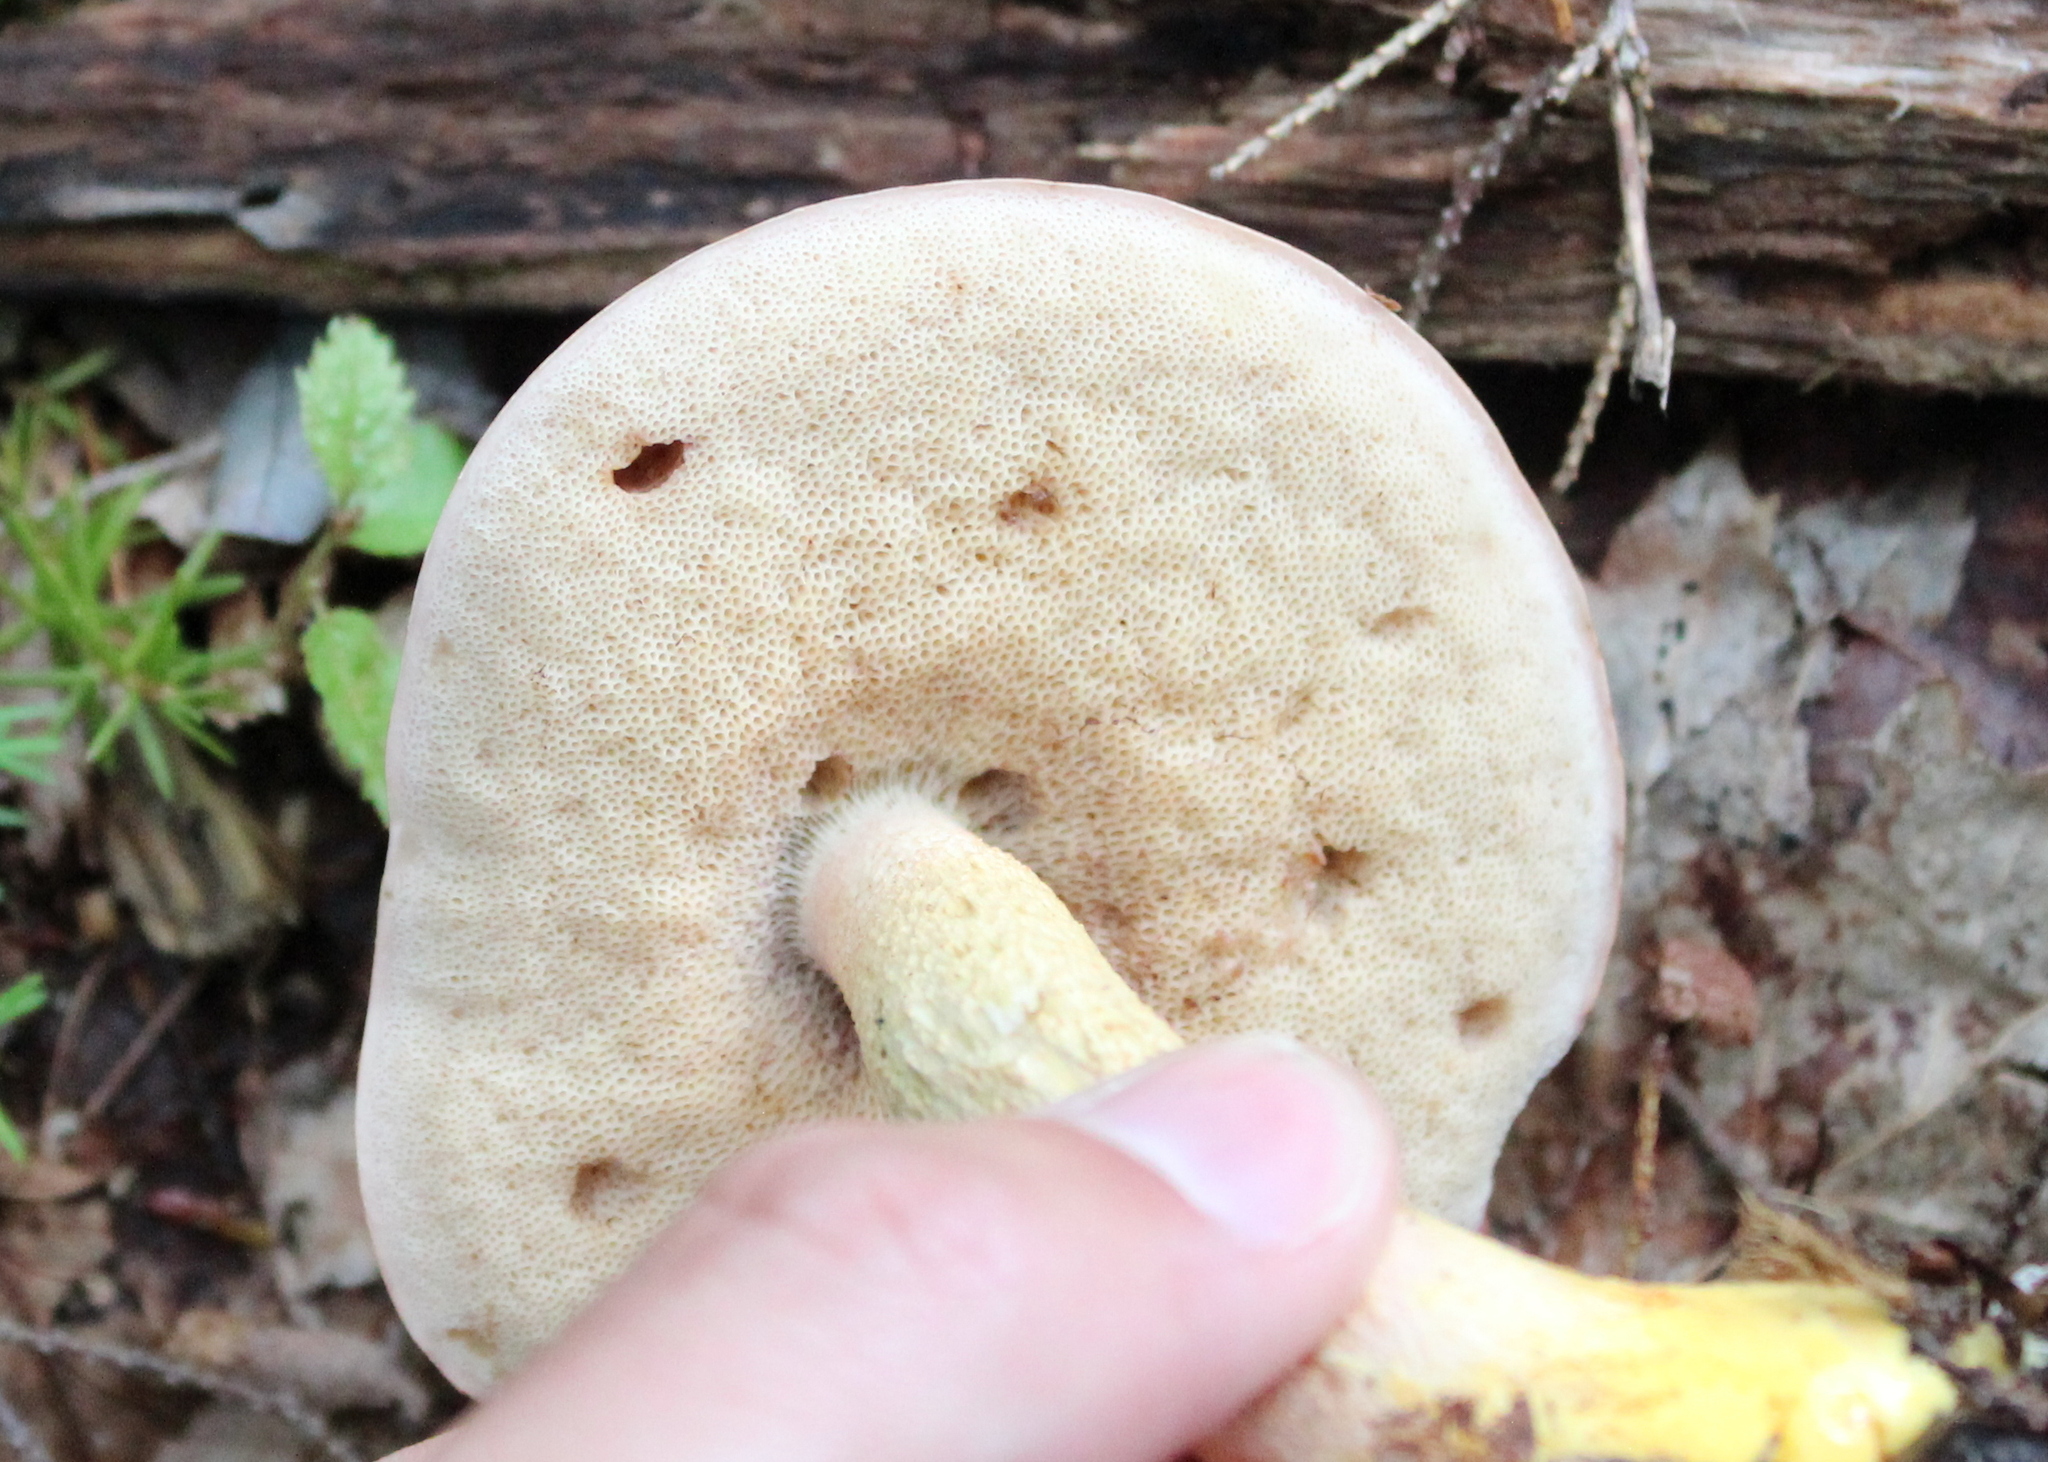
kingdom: Fungi
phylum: Basidiomycota
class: Agaricomycetes
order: Boletales
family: Boletaceae
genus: Harrya
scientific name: Harrya chromipes
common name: Chrome-footed bolete
